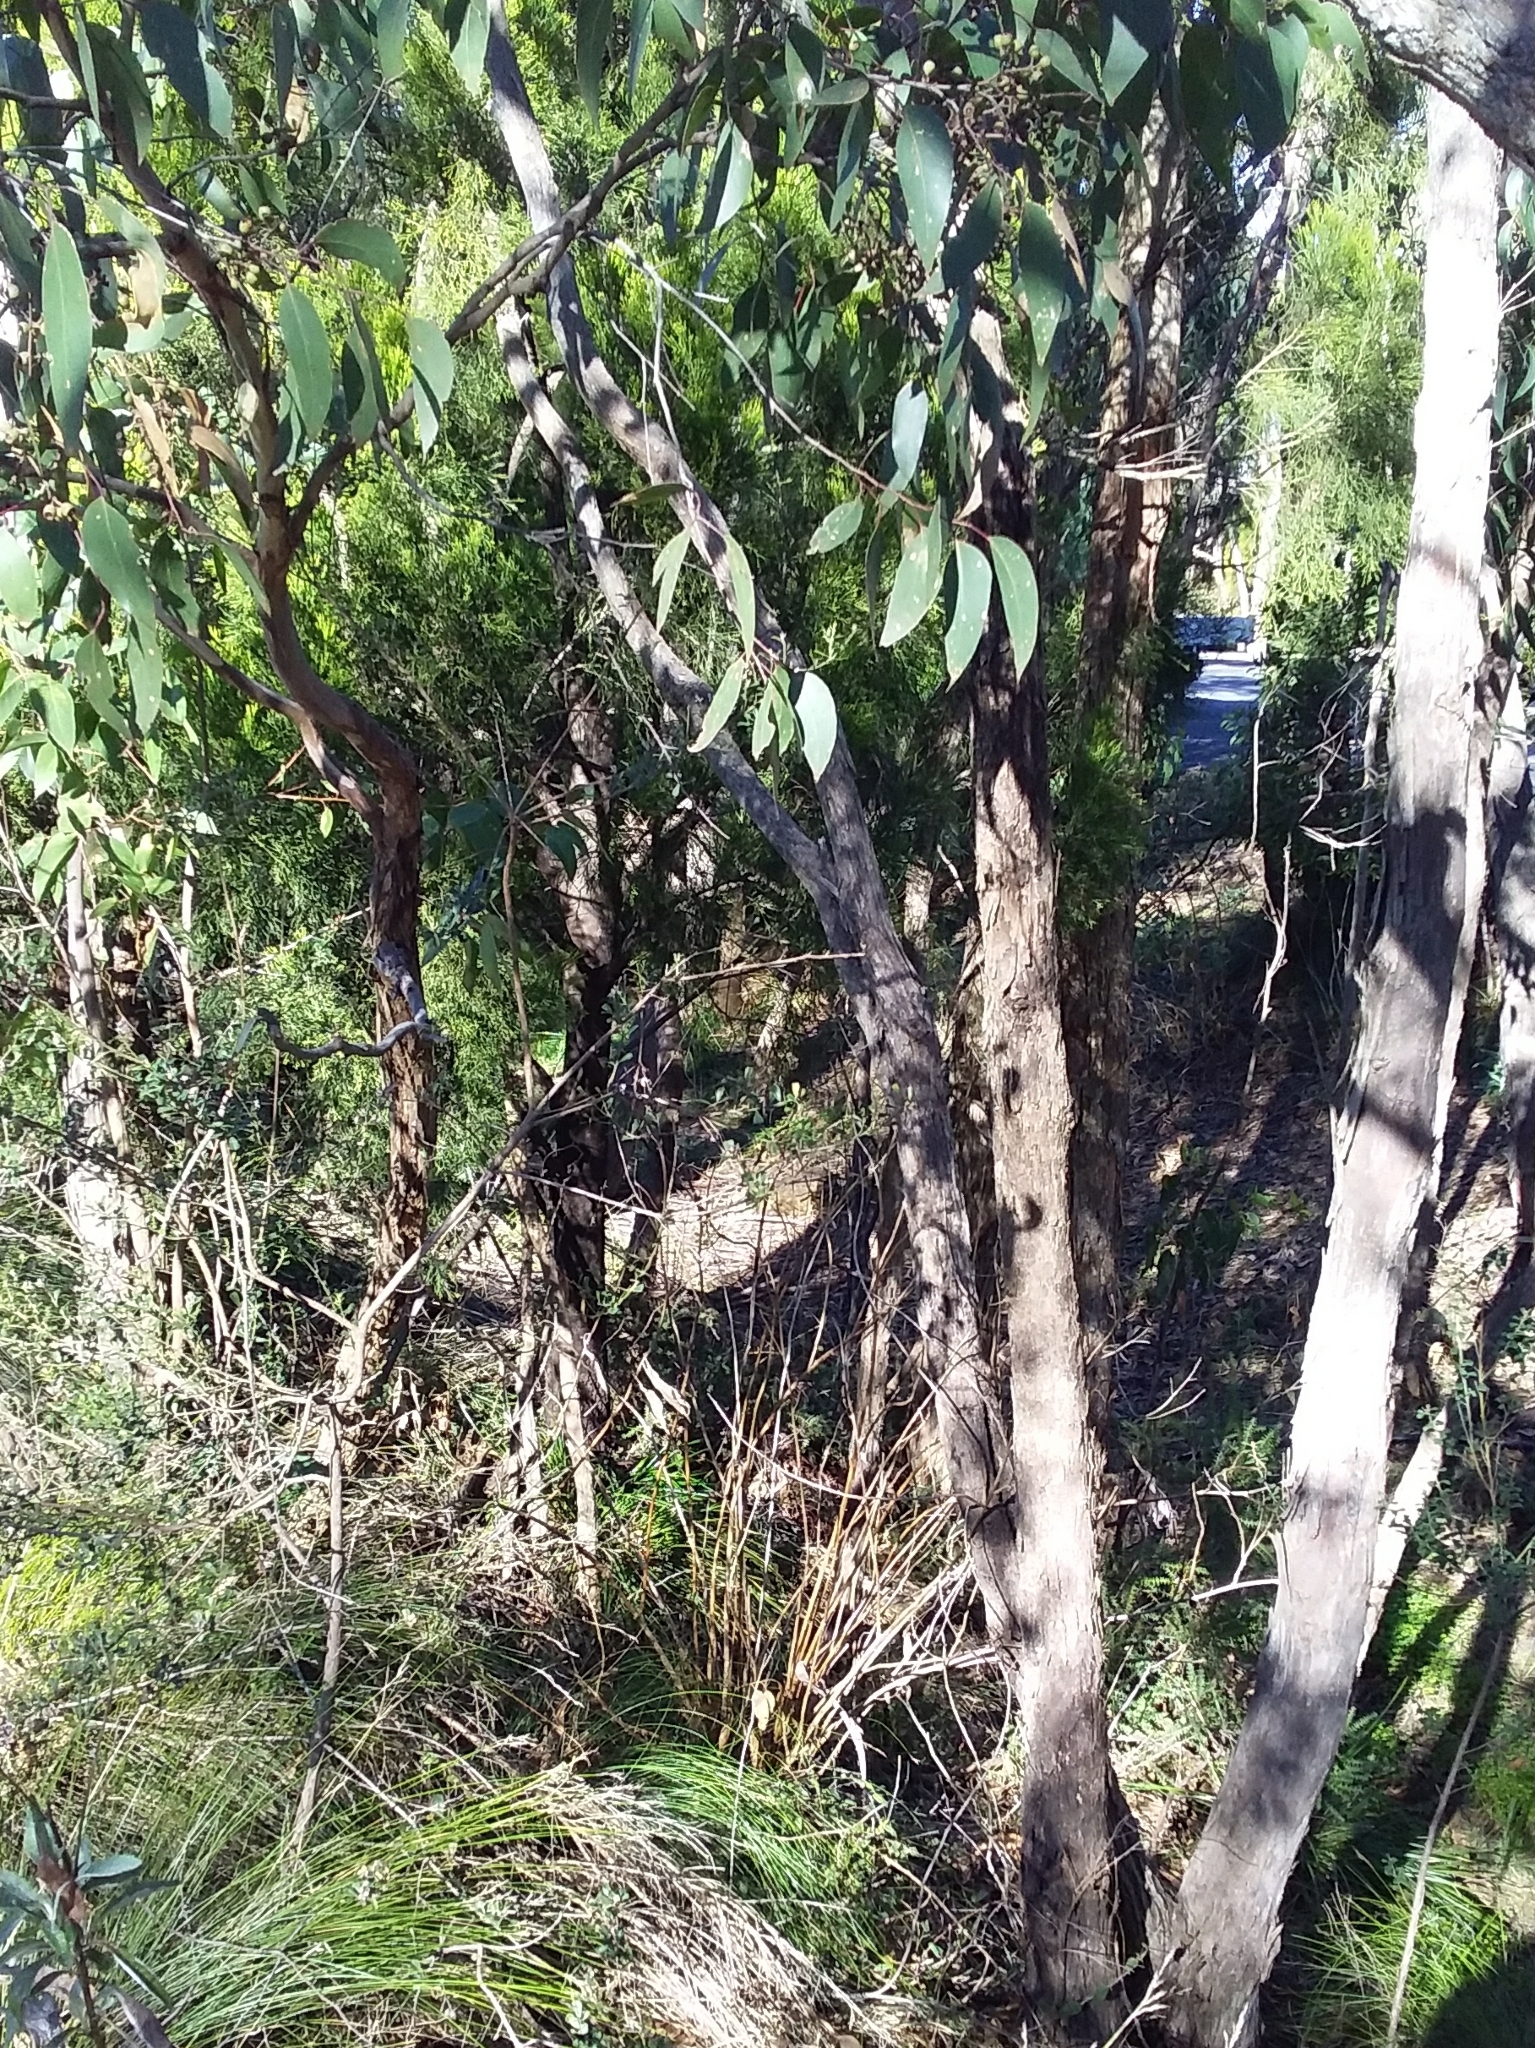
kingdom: Plantae
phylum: Tracheophyta
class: Magnoliopsida
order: Myrtales
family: Myrtaceae
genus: Eucalyptus
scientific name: Eucalyptus obliqua
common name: Messmate stringybark
